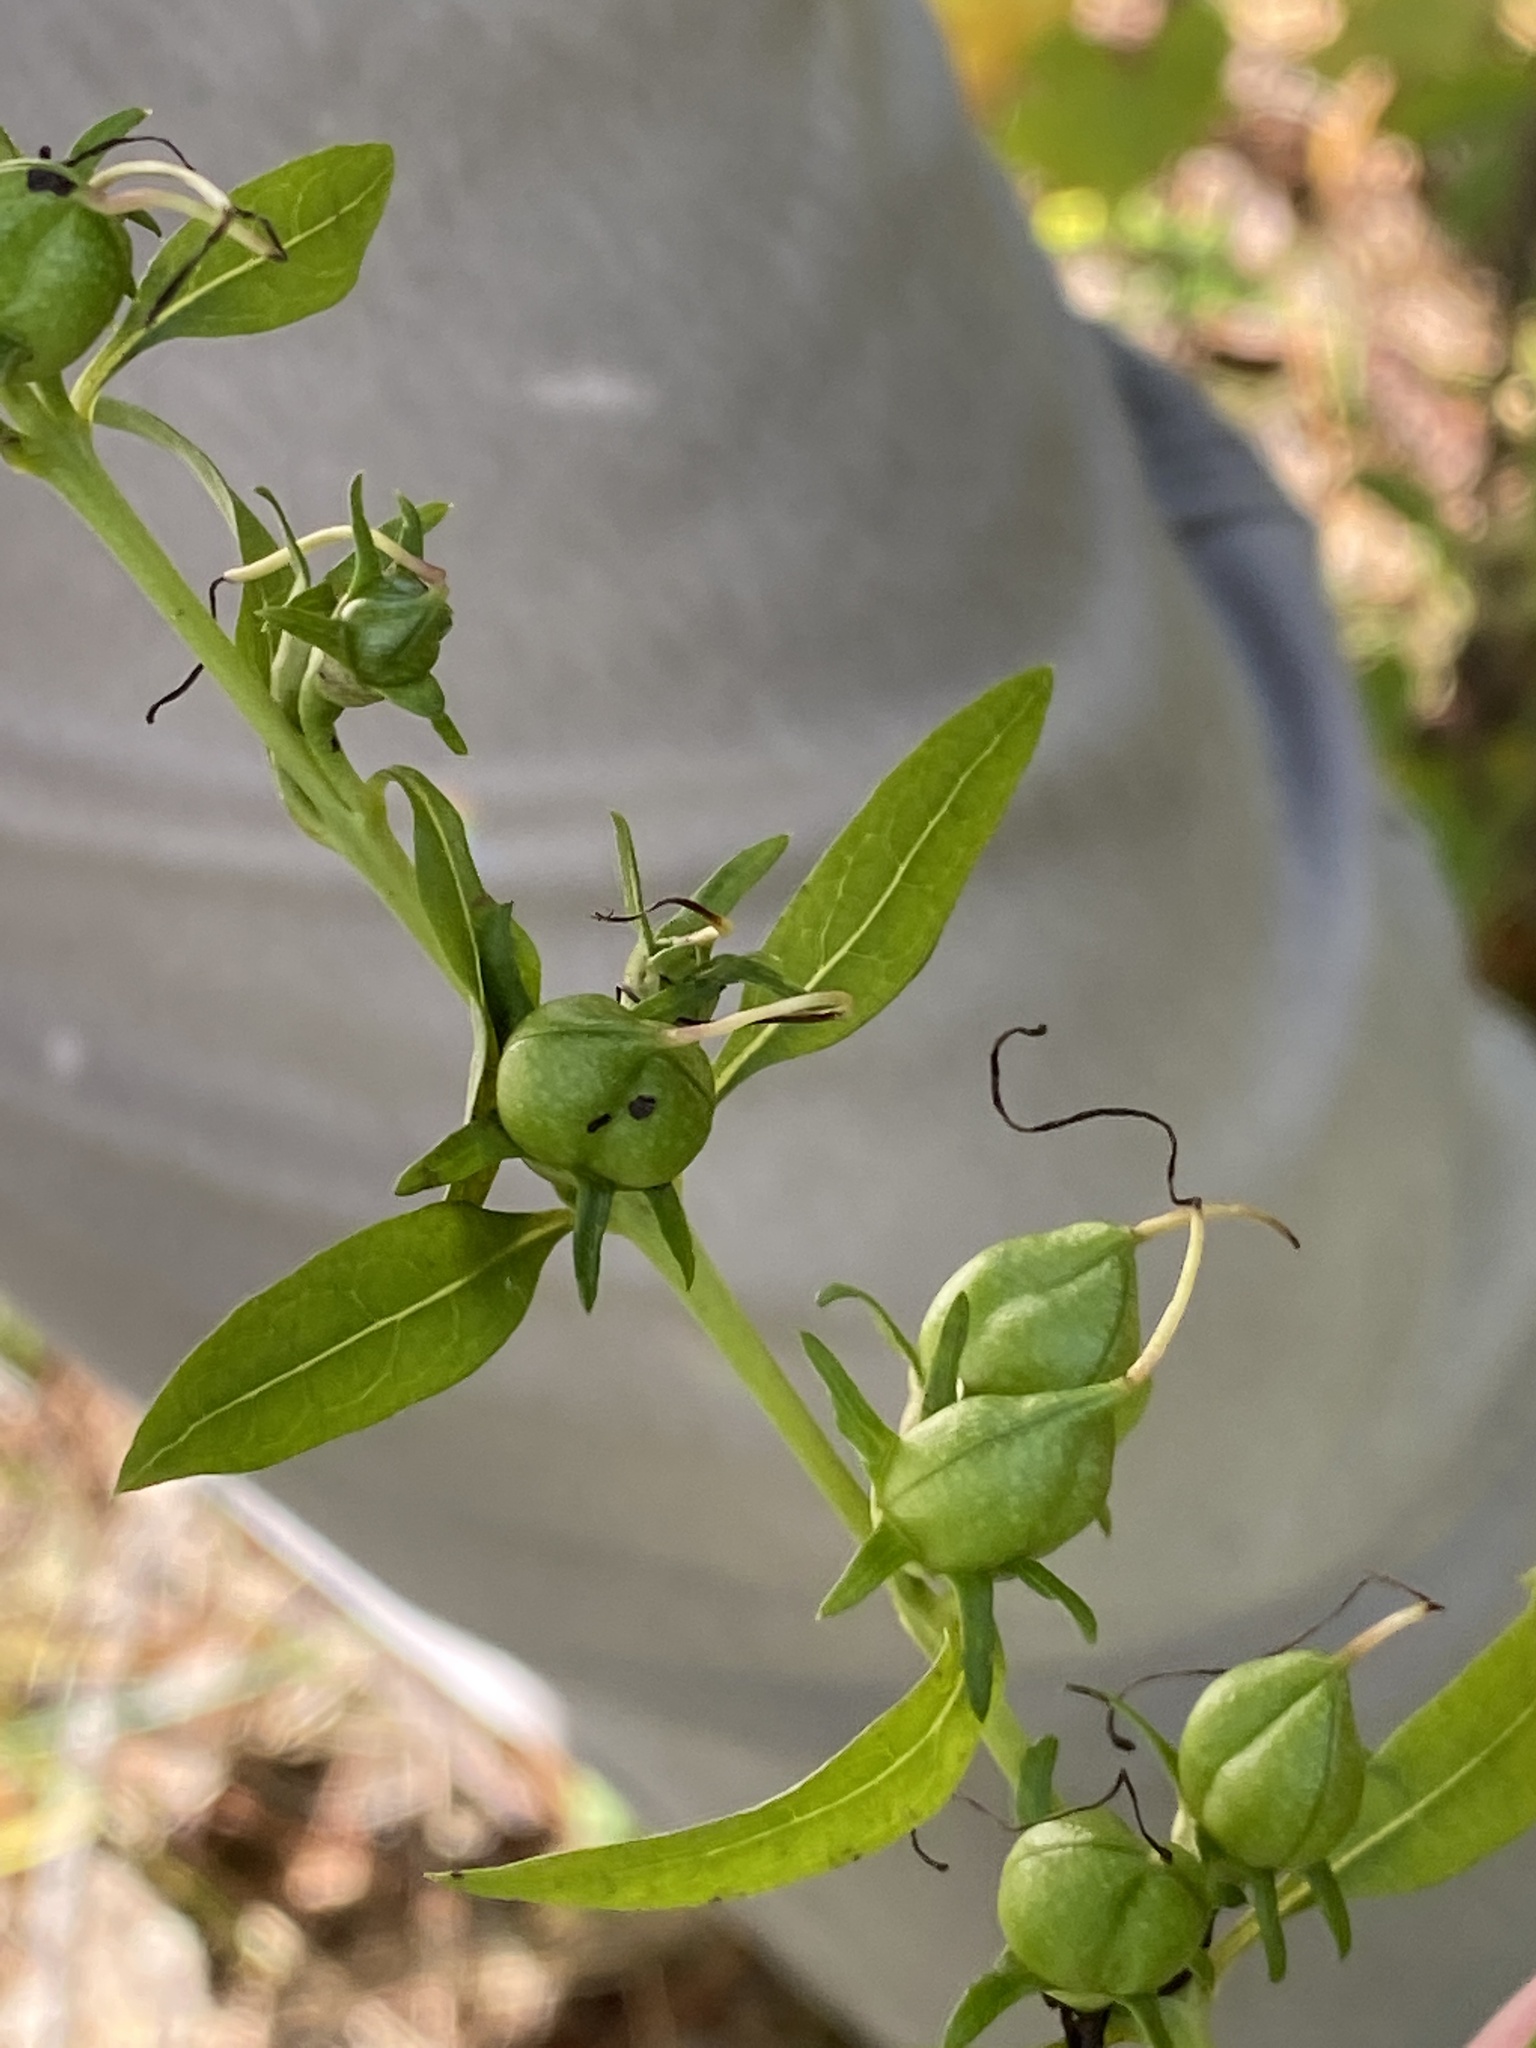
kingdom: Plantae
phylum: Tracheophyta
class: Magnoliopsida
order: Lamiales
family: Orobanchaceae
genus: Aureolaria
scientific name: Aureolaria levigata
